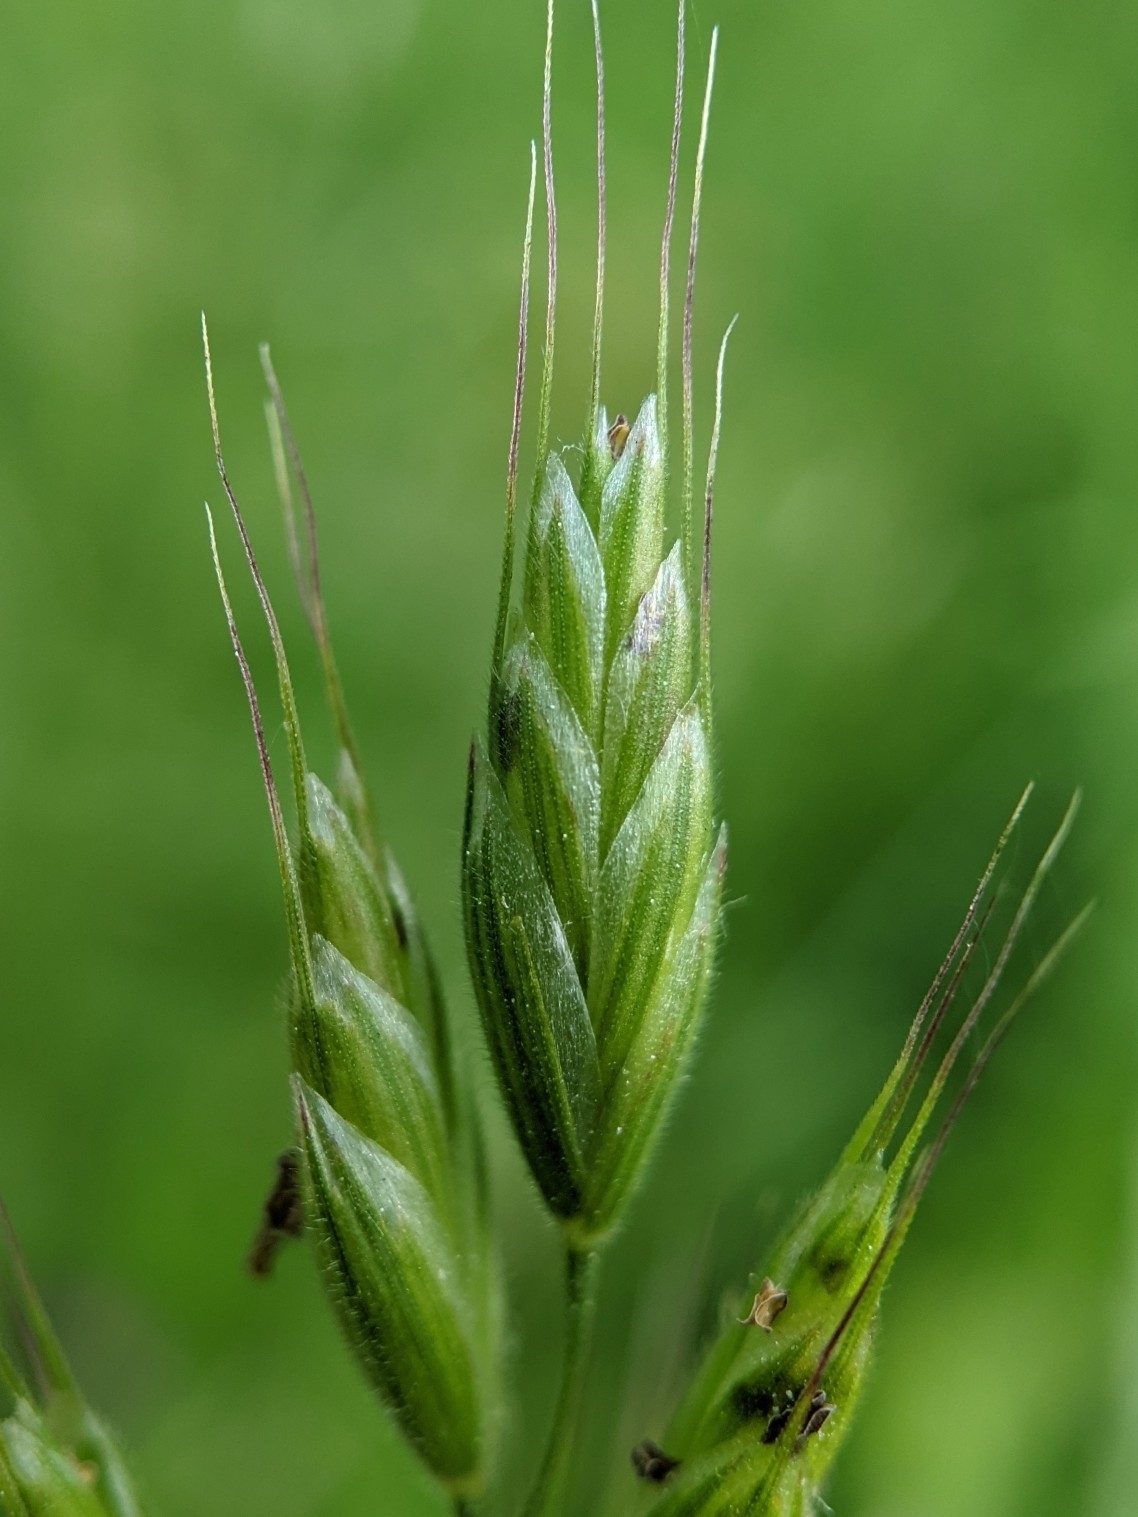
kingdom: Plantae
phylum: Tracheophyta
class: Liliopsida
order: Poales
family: Poaceae
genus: Bromus
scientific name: Bromus hordeaceus
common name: Soft brome
